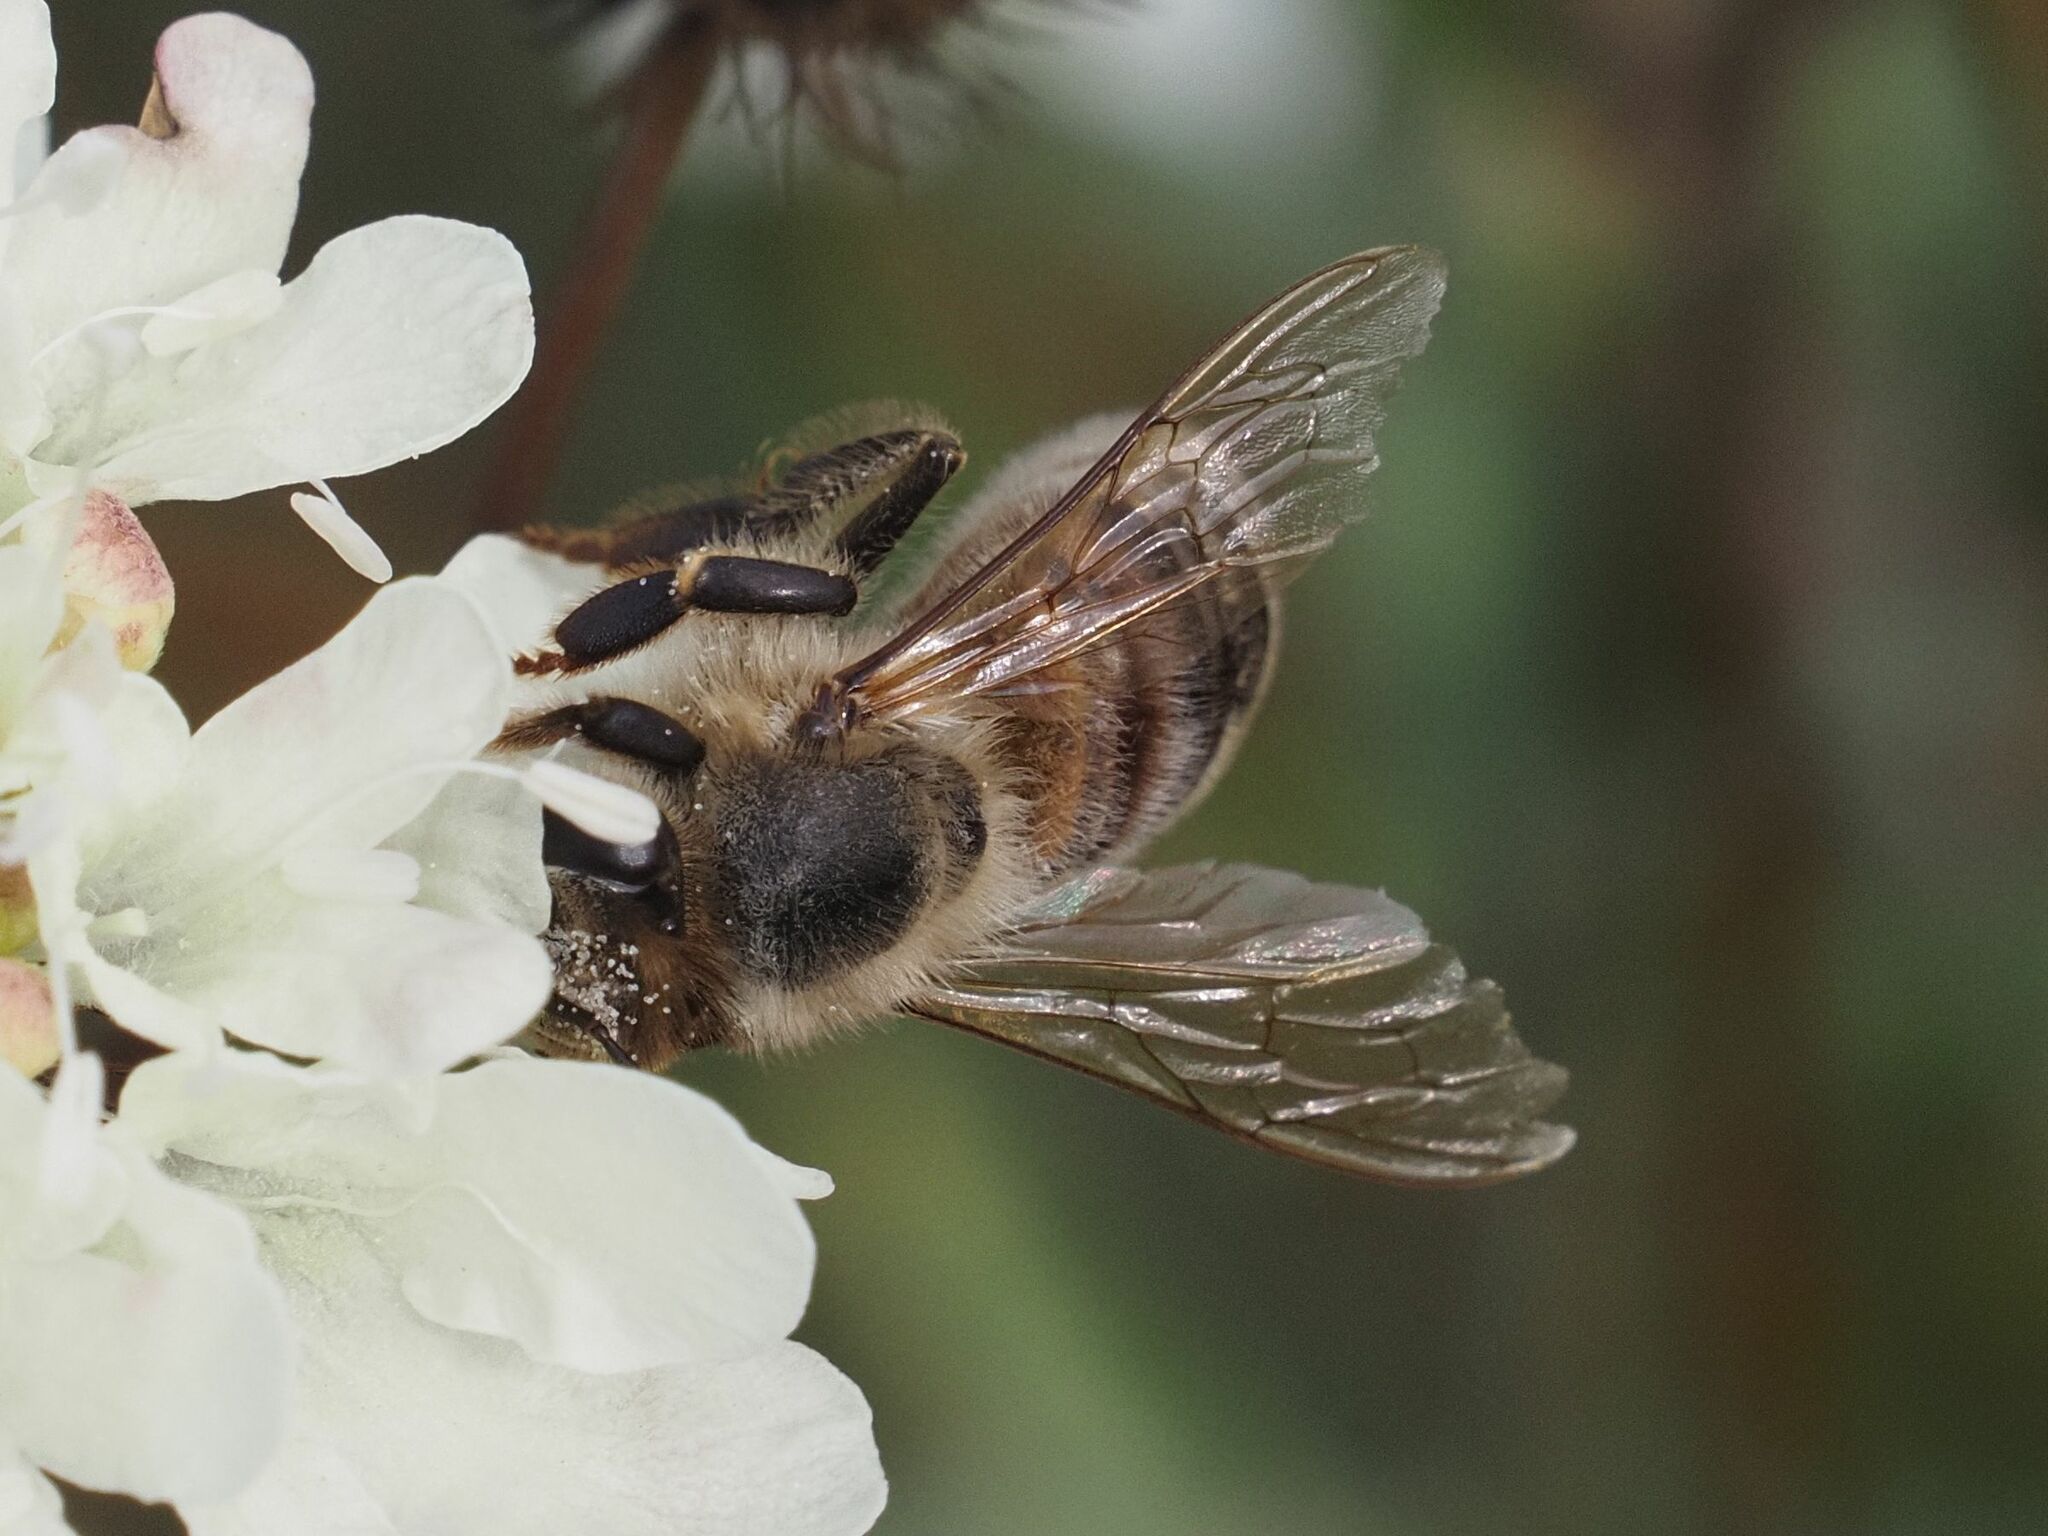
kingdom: Animalia
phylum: Arthropoda
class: Insecta
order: Hymenoptera
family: Apidae
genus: Apis
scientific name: Apis mellifera
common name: Honey bee
